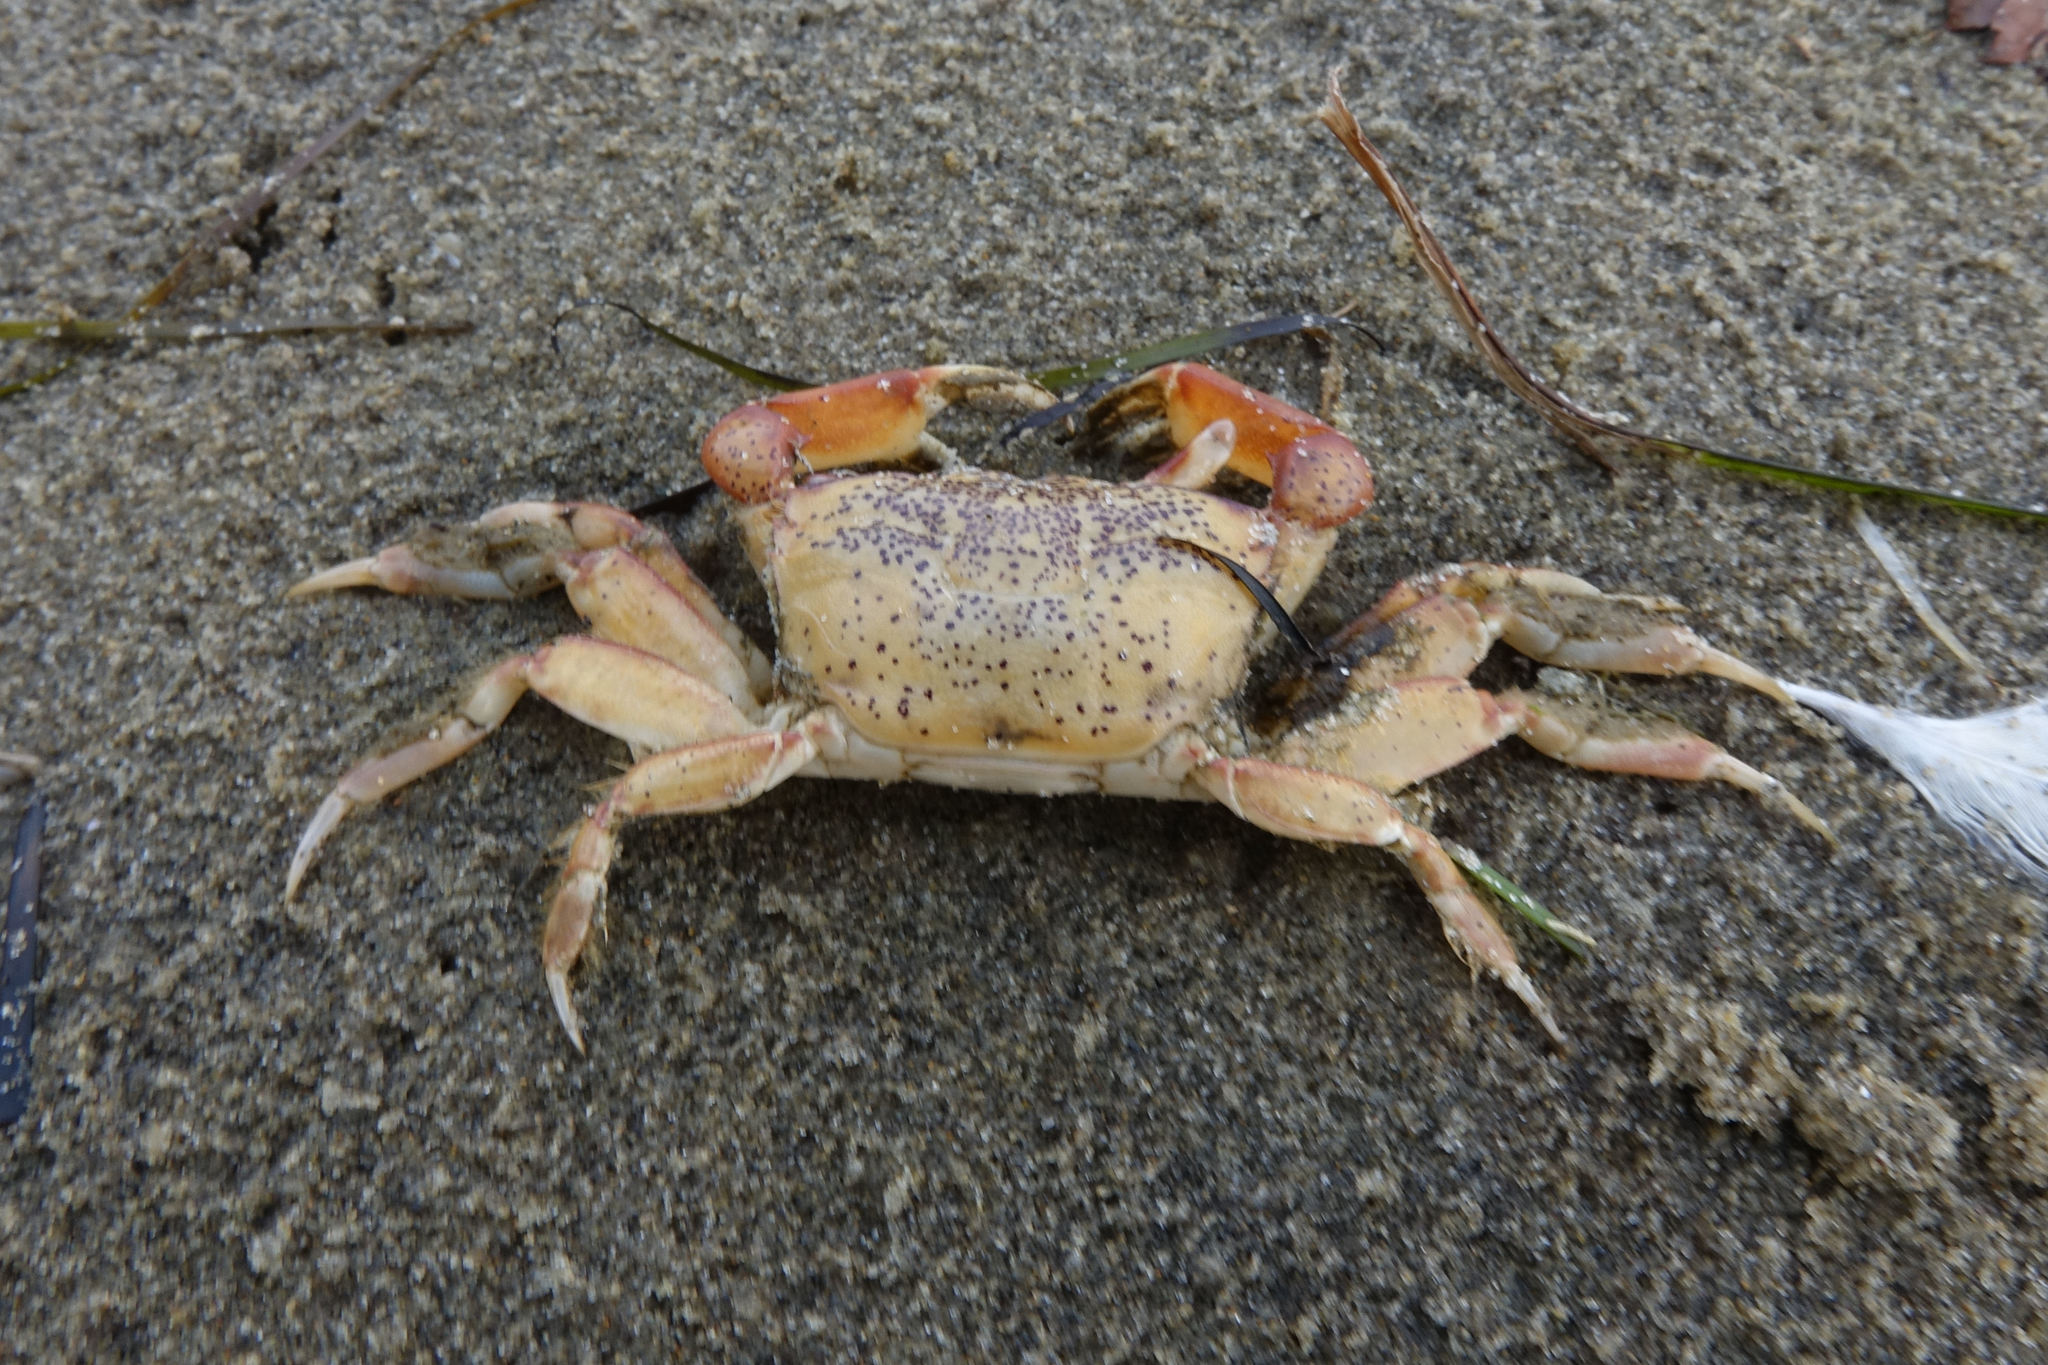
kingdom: Animalia
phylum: Arthropoda
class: Malacostraca
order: Decapoda
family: Macrophthalmidae
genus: Hemiplax
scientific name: Hemiplax hirtipes
